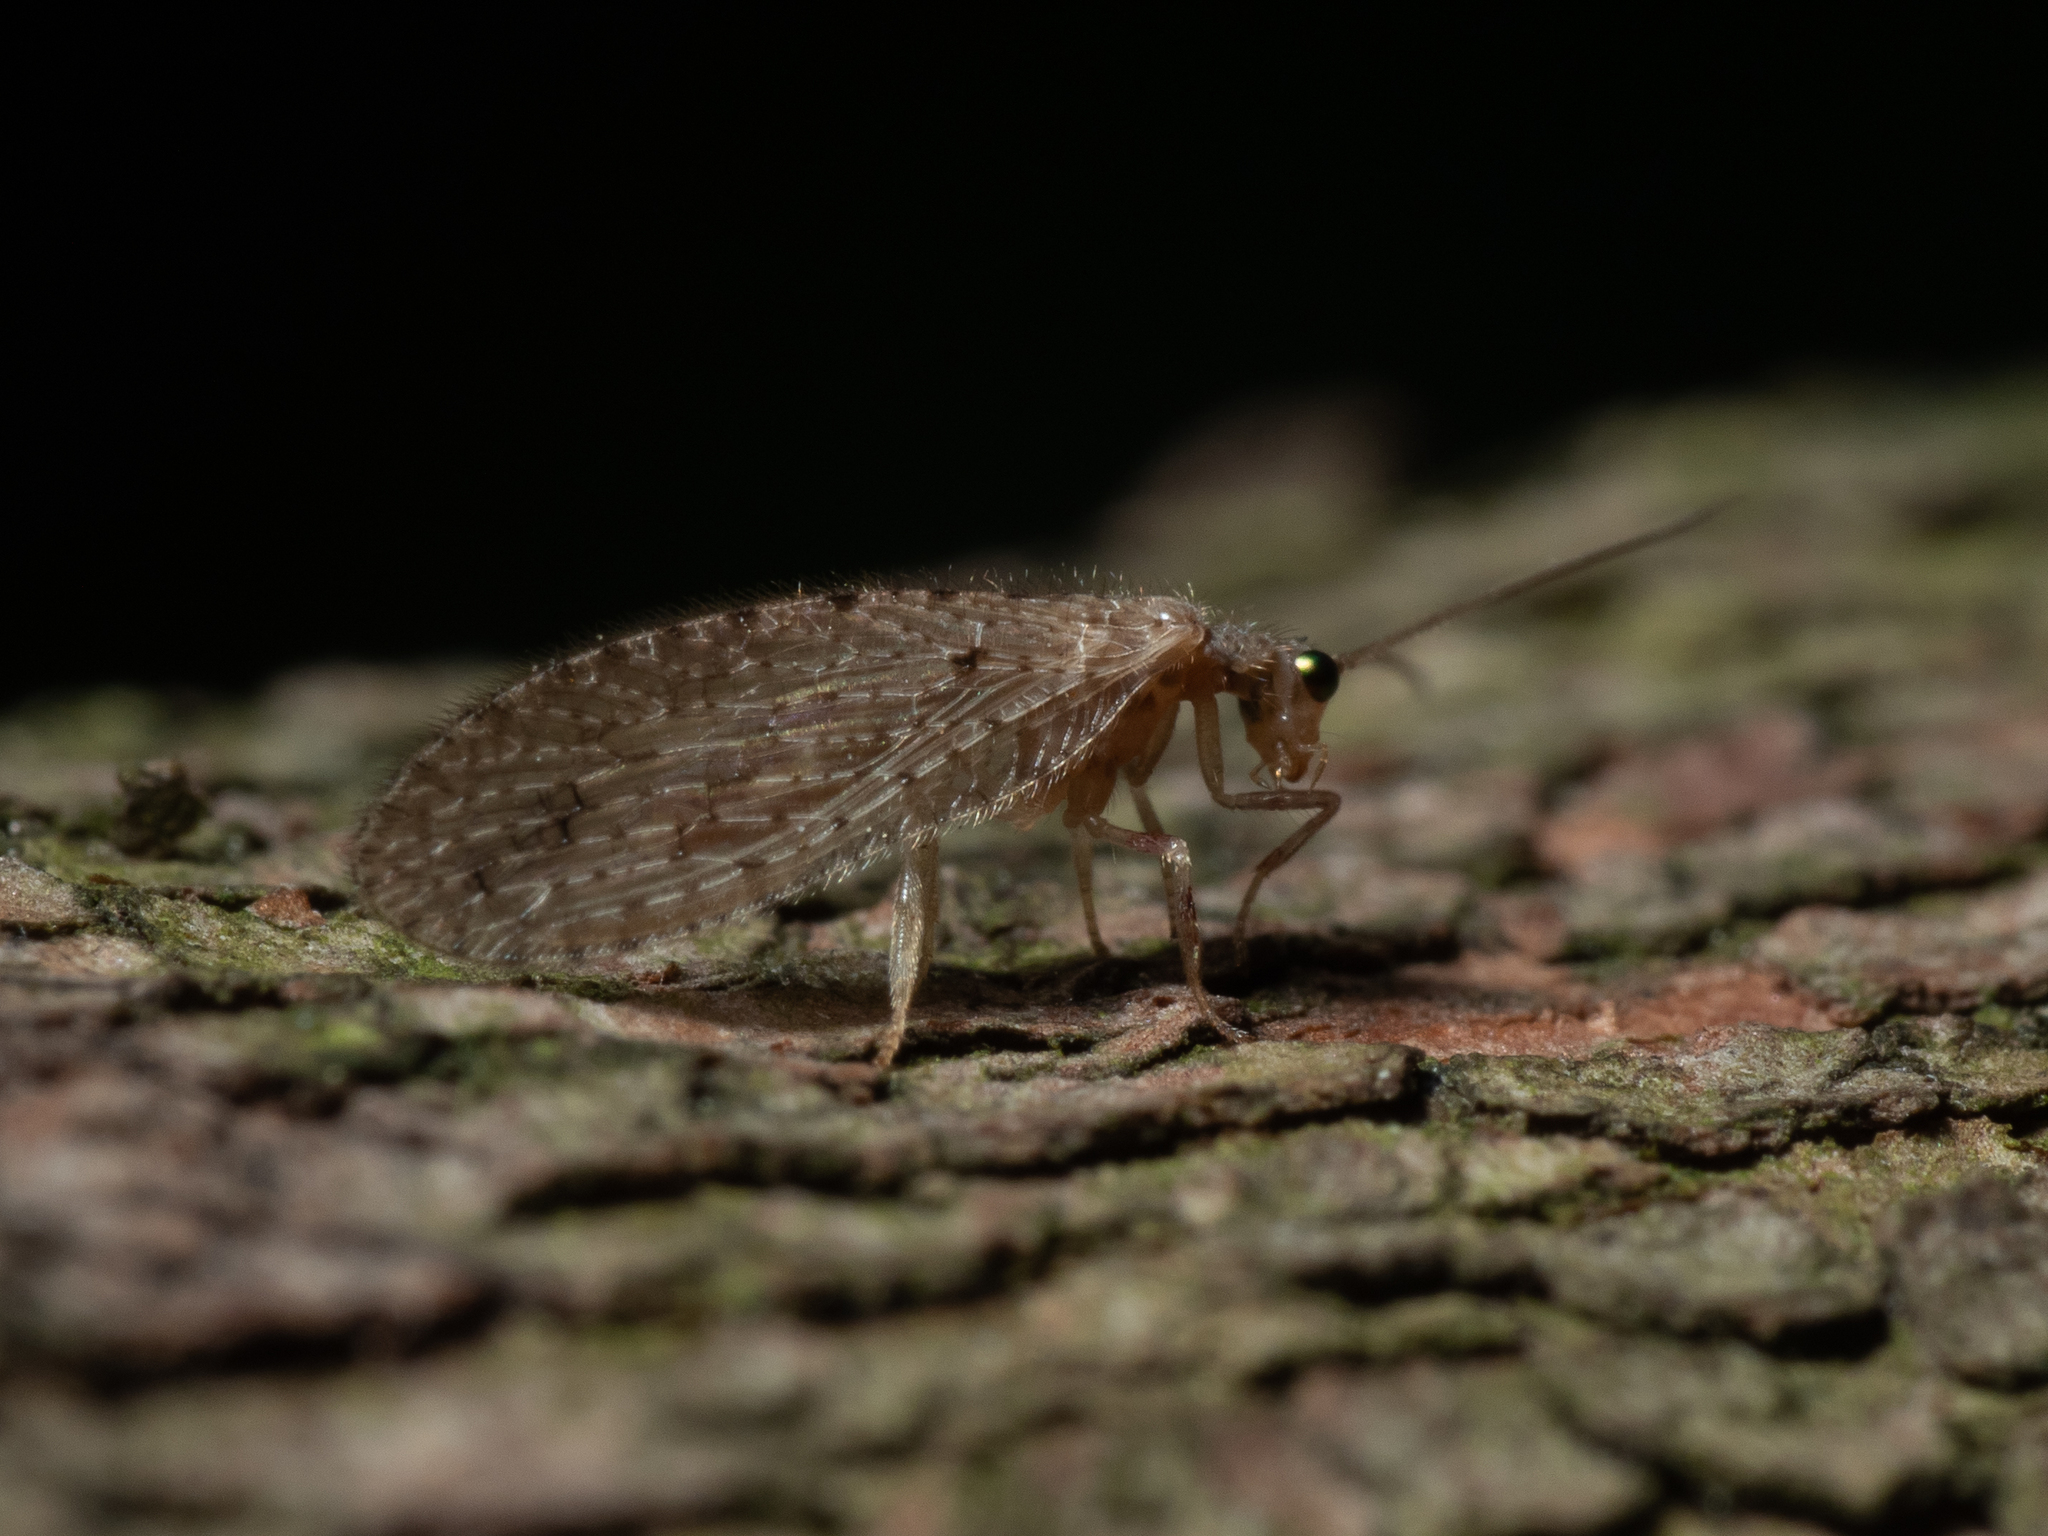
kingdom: Animalia
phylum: Arthropoda
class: Insecta
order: Neuroptera
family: Hemerobiidae
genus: Micromus
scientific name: Micromus tasmaniae
